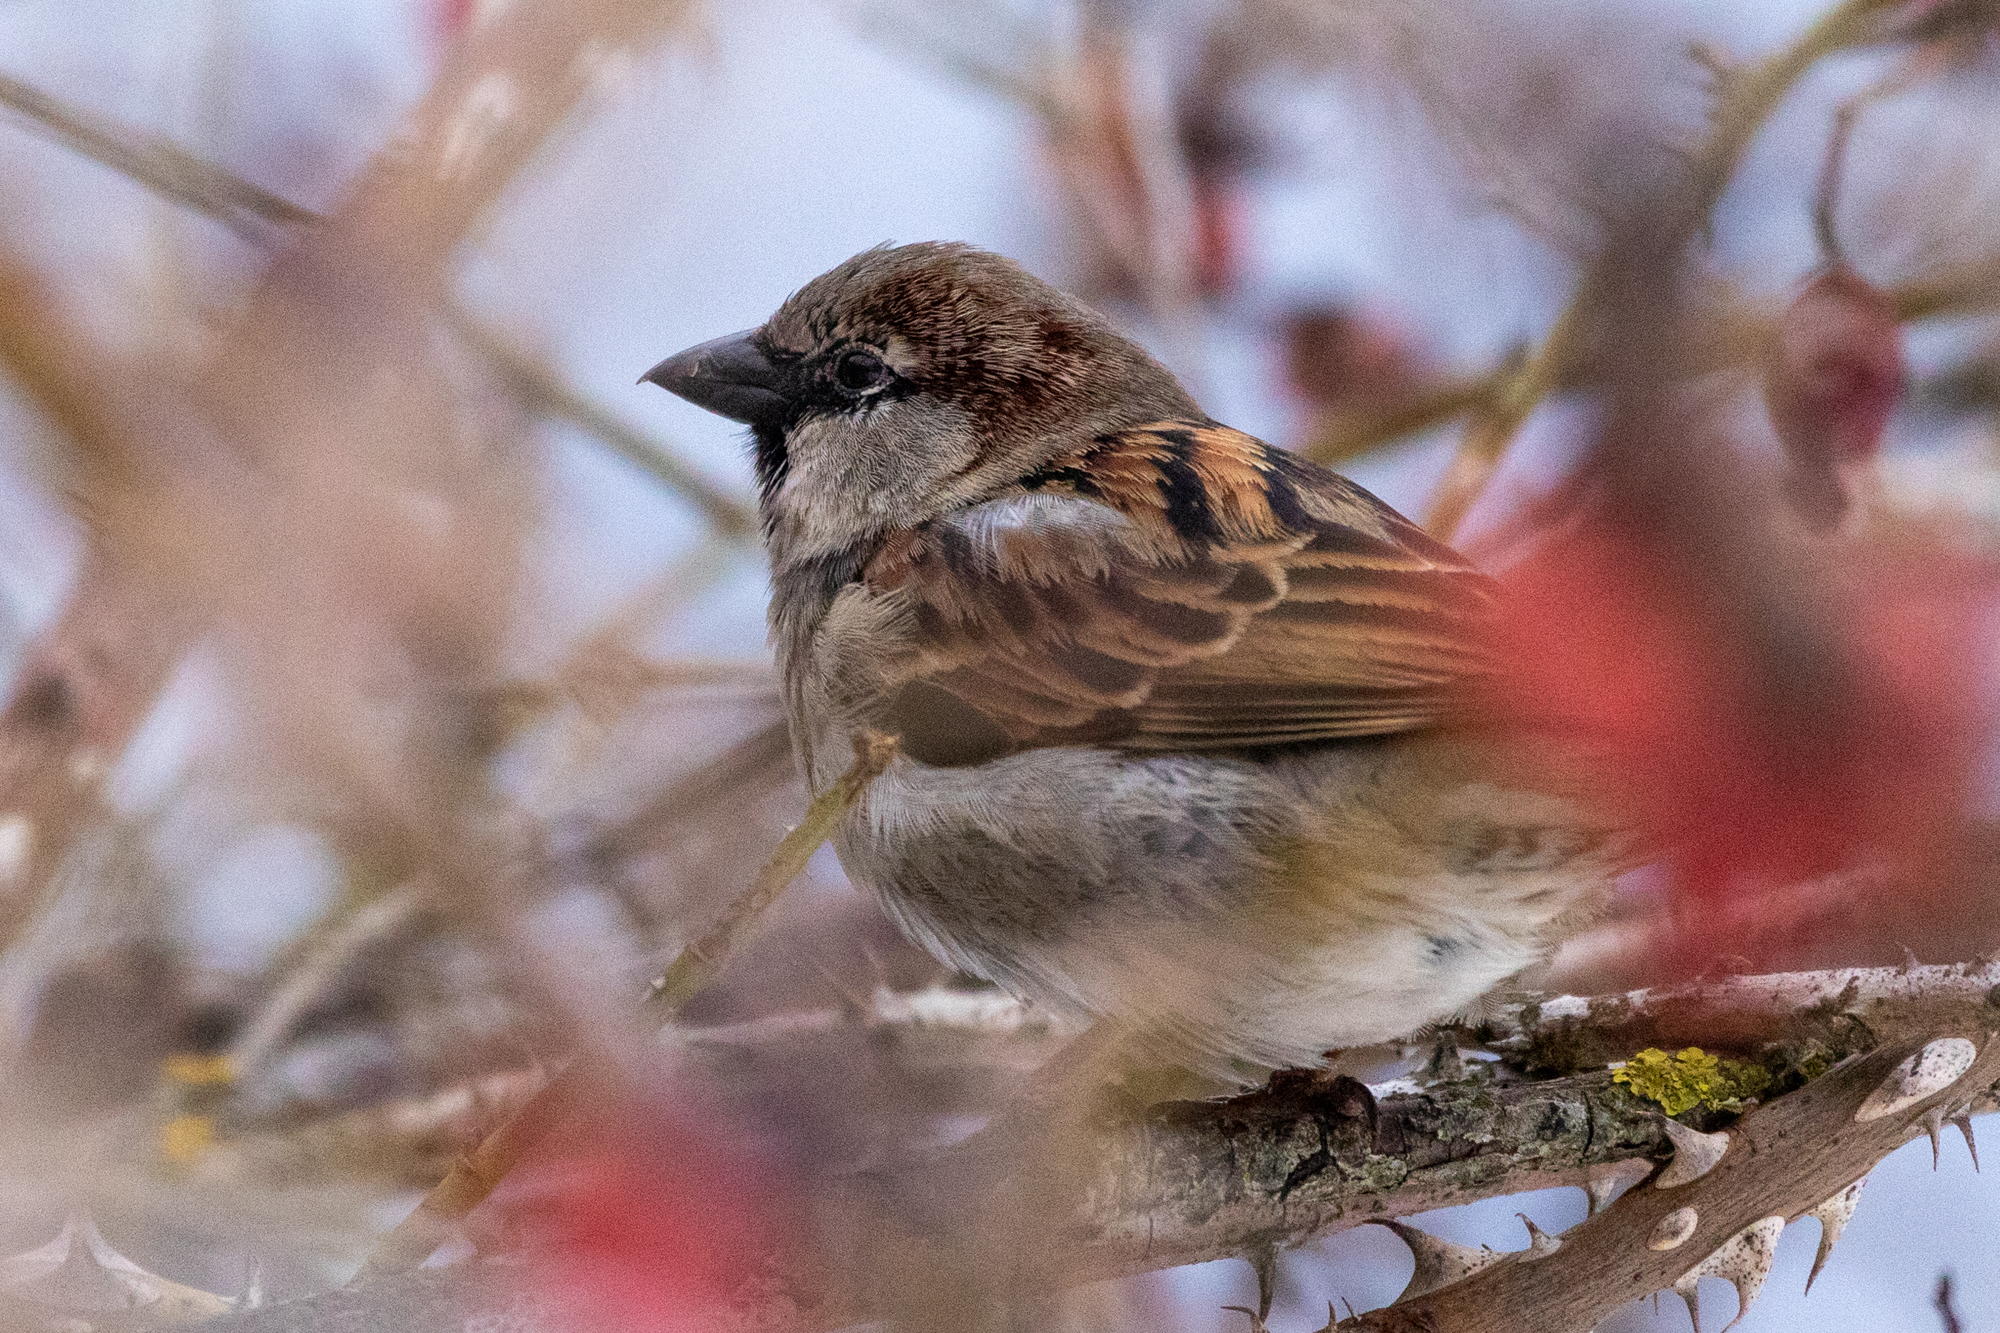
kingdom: Animalia
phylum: Chordata
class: Aves
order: Passeriformes
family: Passeridae
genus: Passer
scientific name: Passer domesticus
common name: House sparrow
